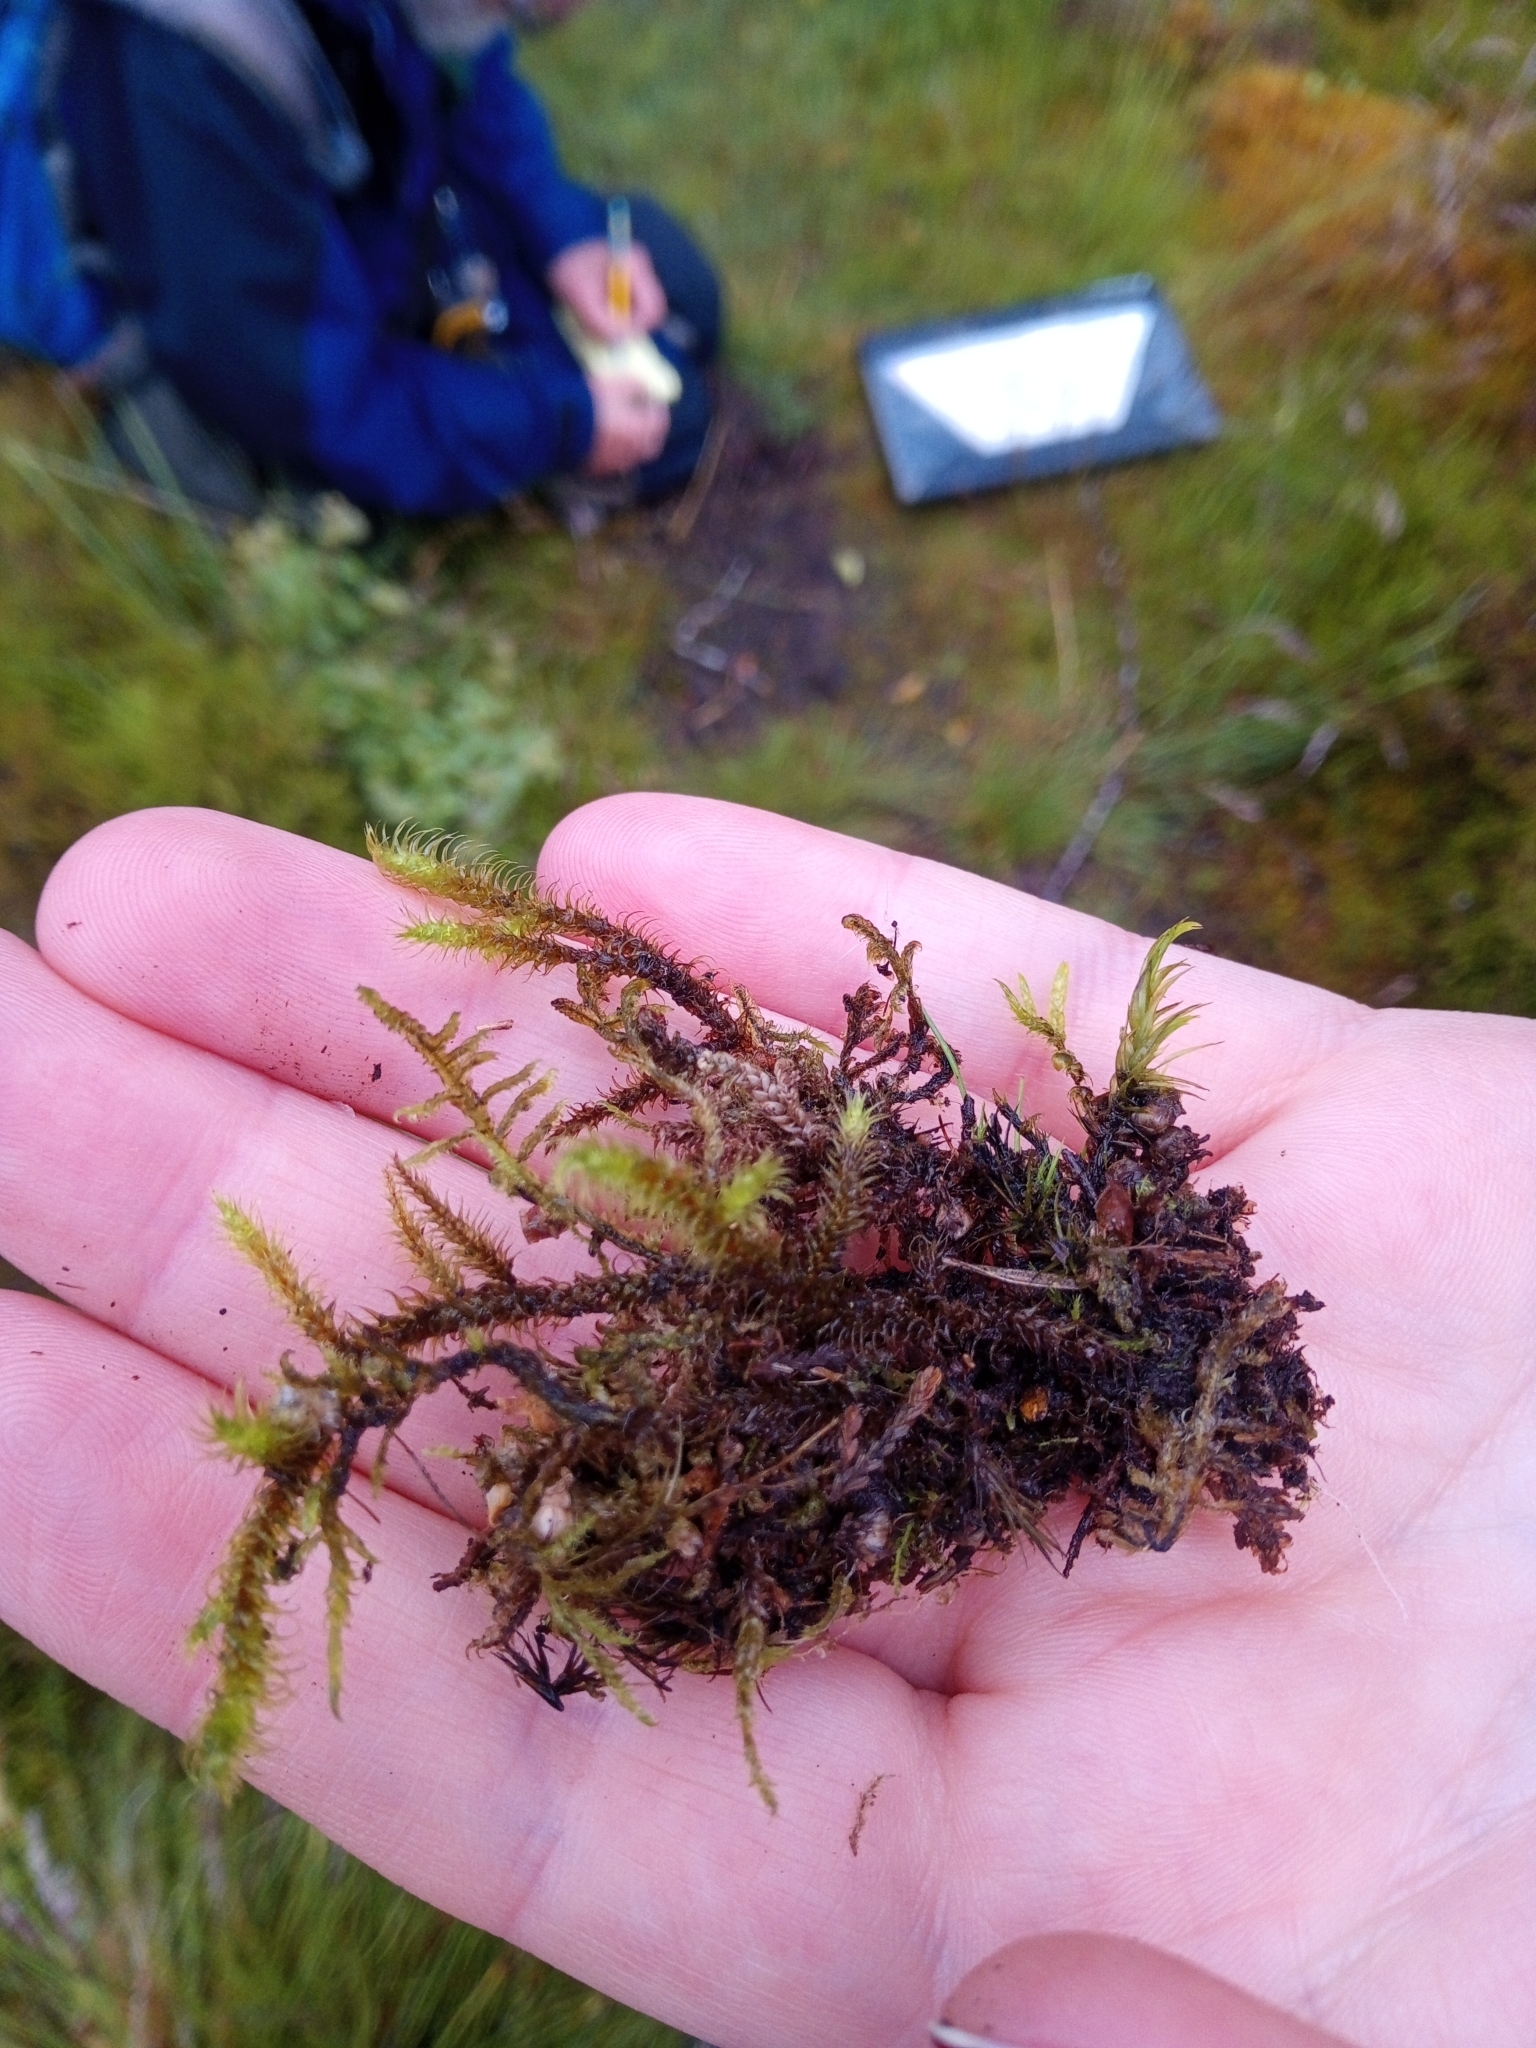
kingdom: Plantae
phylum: Bryophyta
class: Bryopsida
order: Hypnales
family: Hylocomiaceae
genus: Rhytidiadelphus
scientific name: Rhytidiadelphus loreus
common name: Lanky moss
